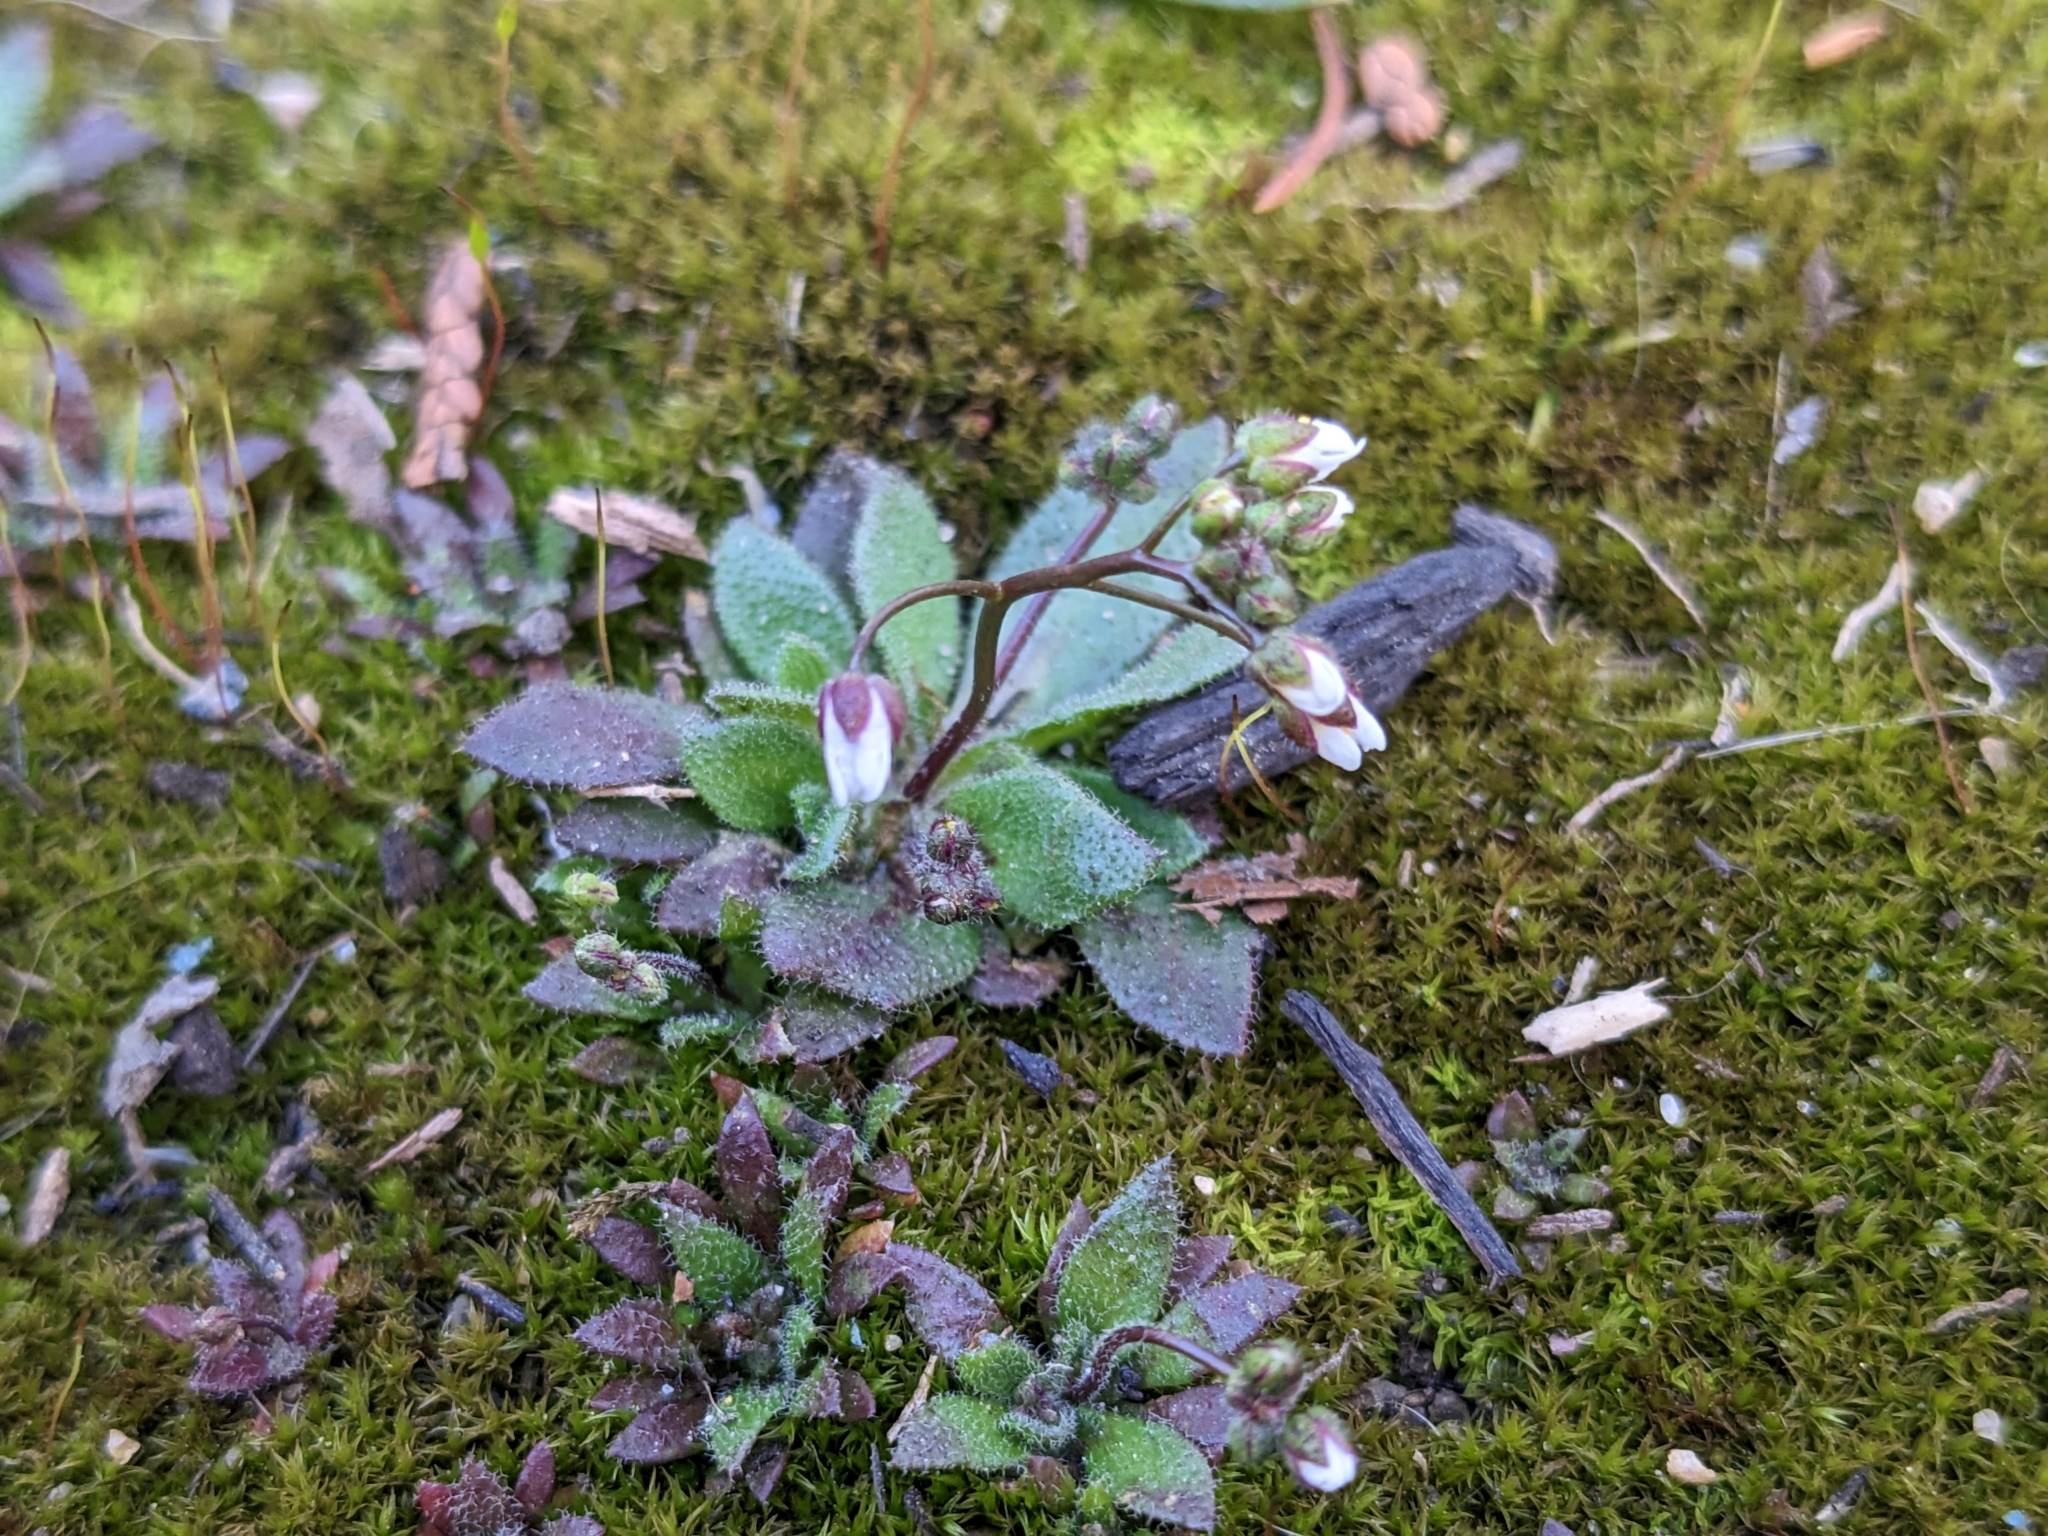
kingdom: Plantae
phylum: Tracheophyta
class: Magnoliopsida
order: Brassicales
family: Brassicaceae
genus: Draba
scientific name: Draba verna
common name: Spring draba
